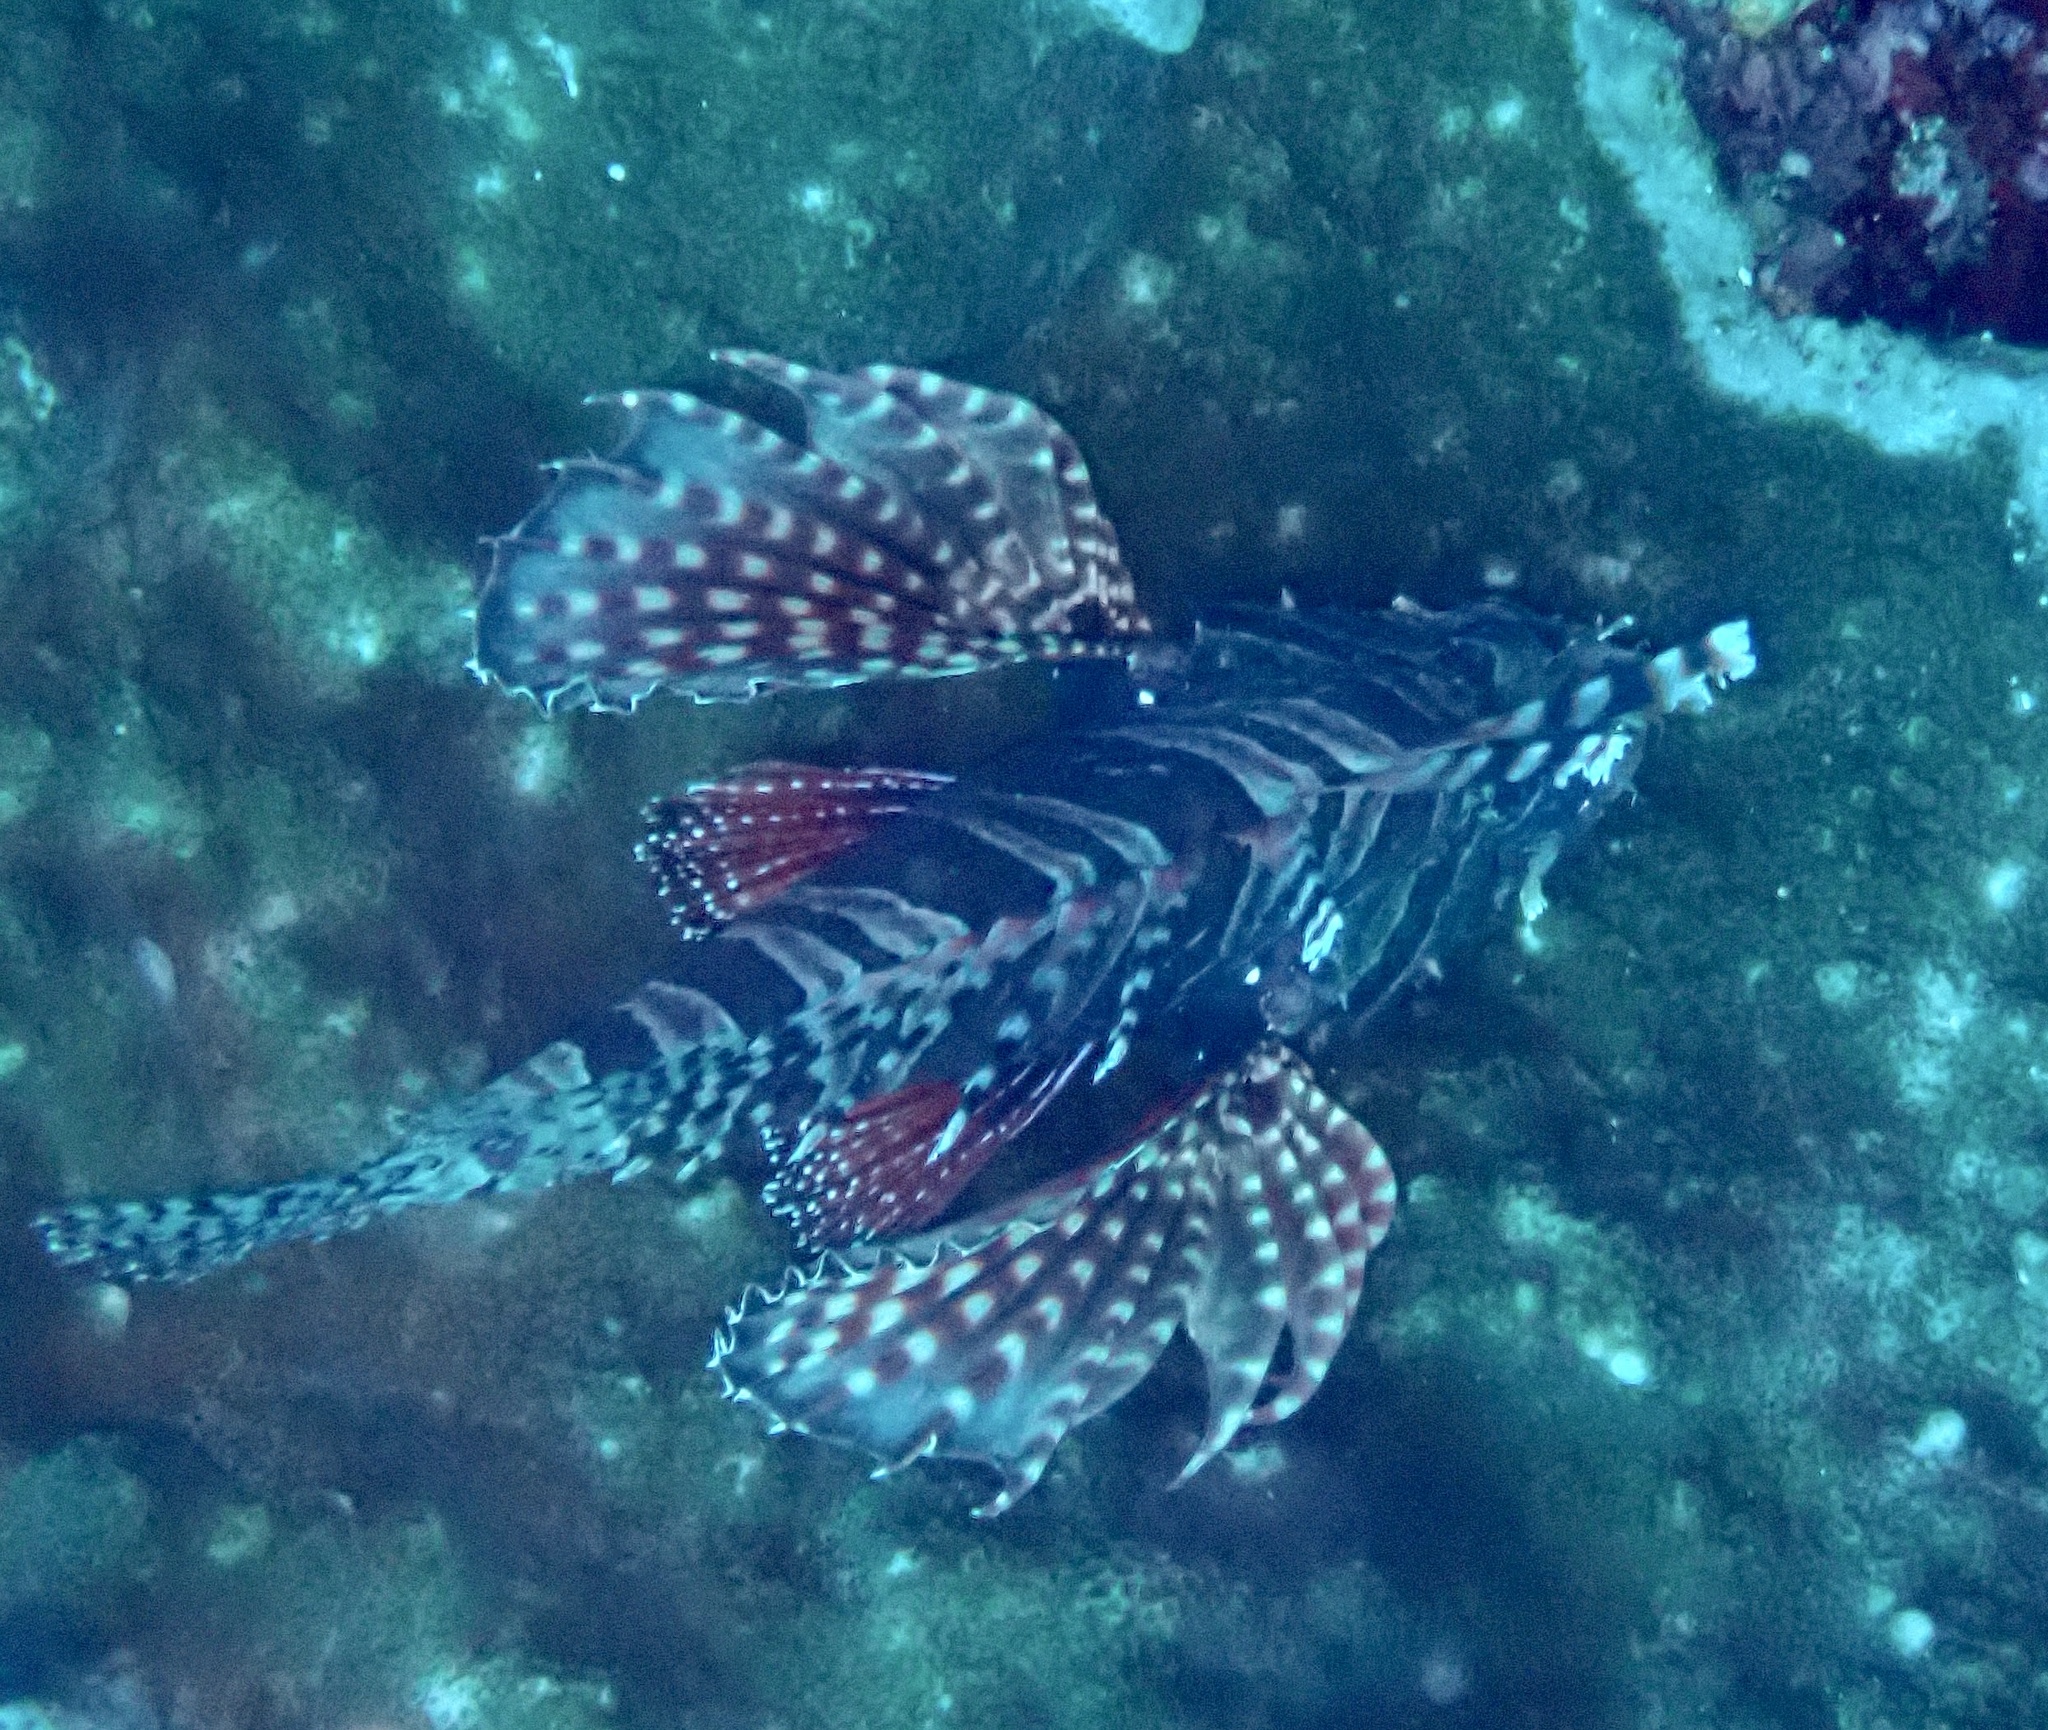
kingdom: Animalia
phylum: Chordata
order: Scorpaeniformes
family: Scorpaenidae
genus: Dendrochirus
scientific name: Dendrochirus zebra
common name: Zebra lionfish
